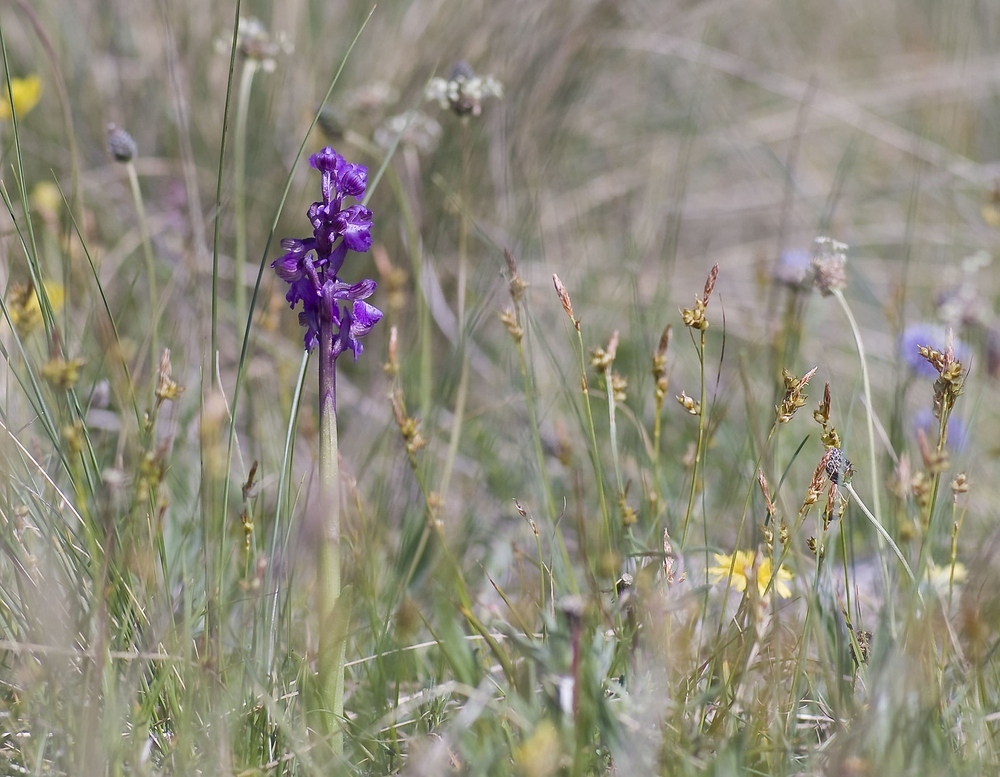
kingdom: Plantae
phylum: Tracheophyta
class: Liliopsida
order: Asparagales
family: Orchidaceae
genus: Anacamptis
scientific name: Anacamptis morio
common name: Green-winged orchid
